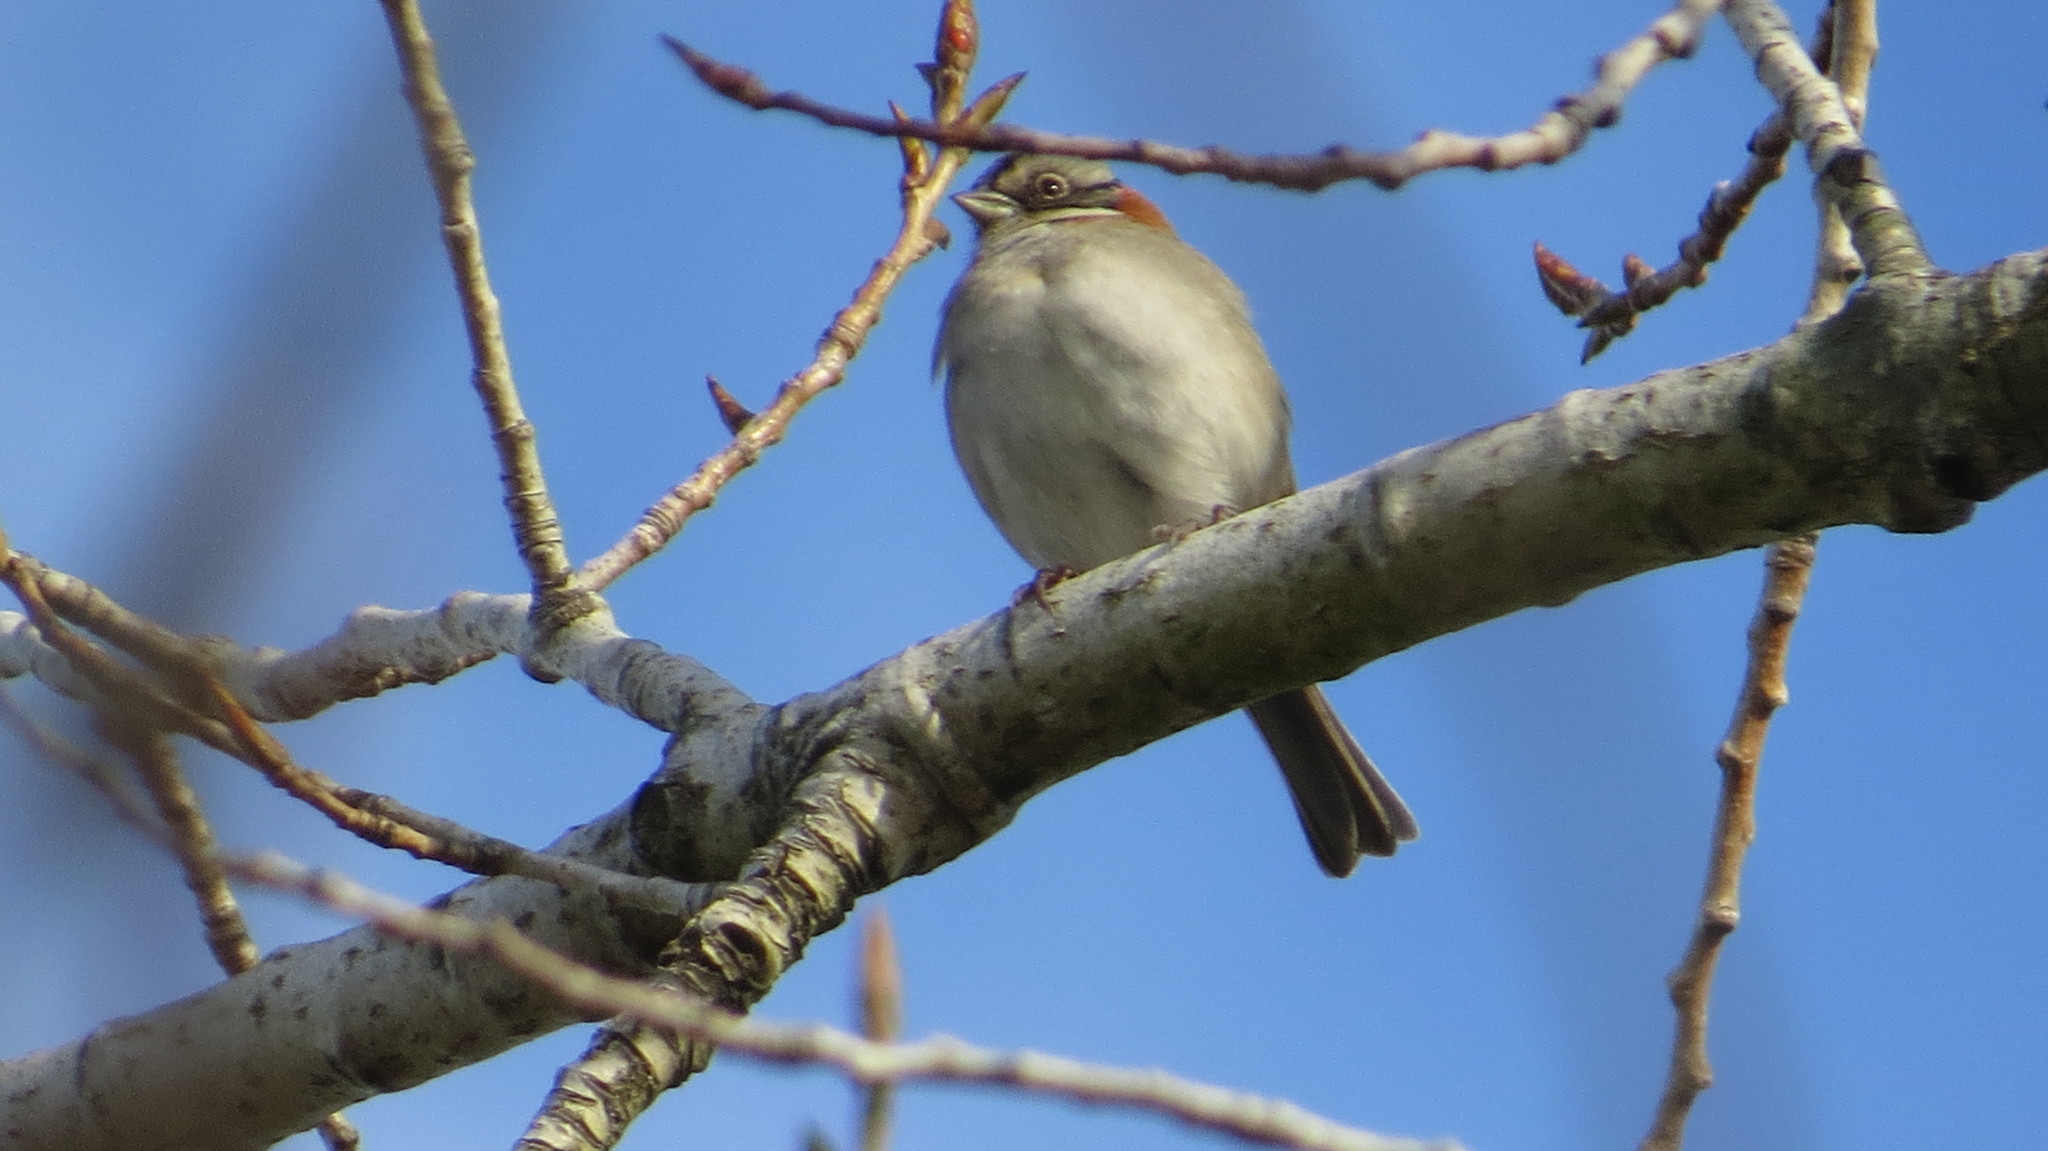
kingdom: Animalia
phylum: Chordata
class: Aves
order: Passeriformes
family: Passerellidae
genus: Zonotrichia
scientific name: Zonotrichia capensis
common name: Rufous-collared sparrow
